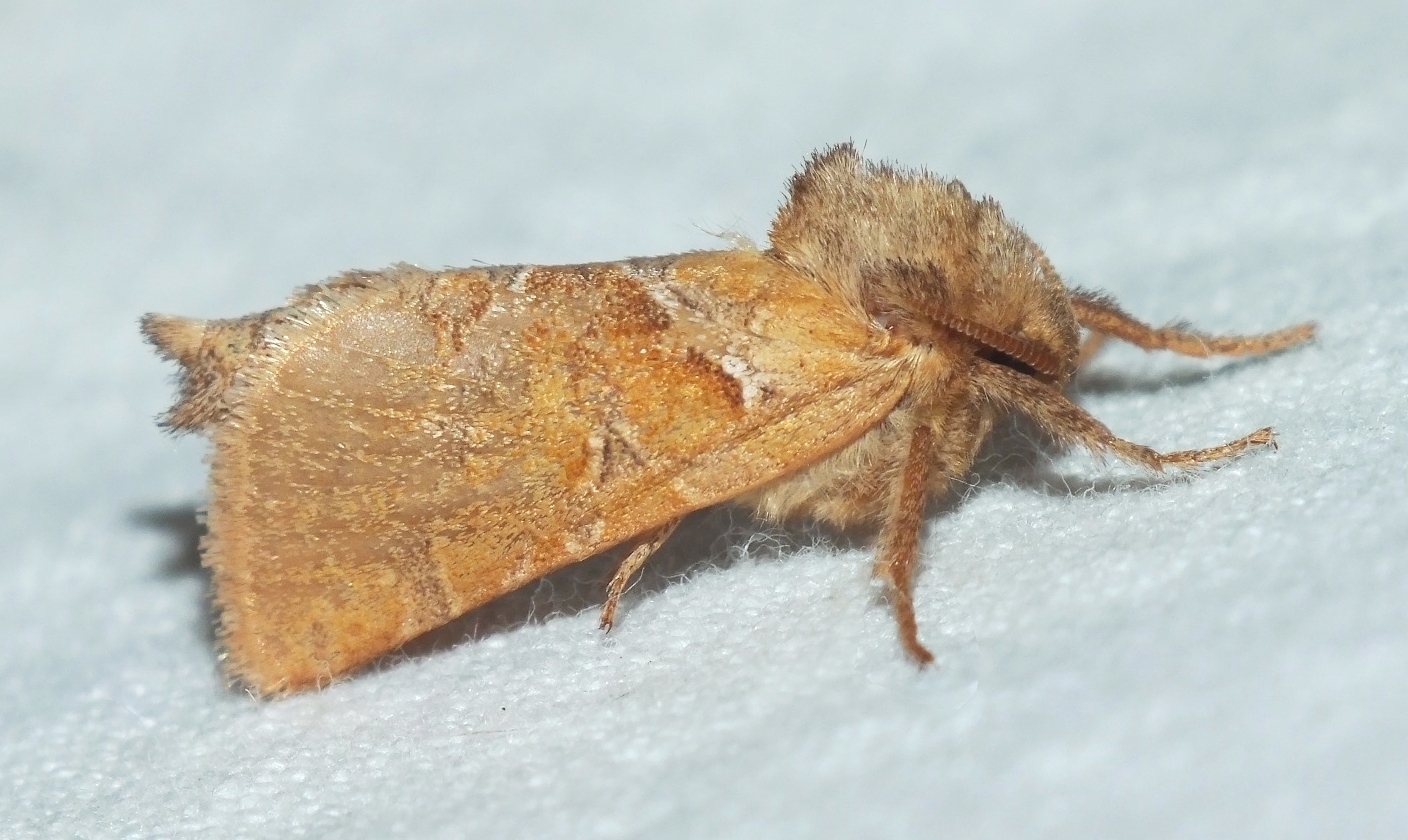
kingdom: Animalia
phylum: Arthropoda
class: Insecta
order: Lepidoptera
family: Hepialidae
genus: Triodia
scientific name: Triodia sylvina
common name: Orange swift
